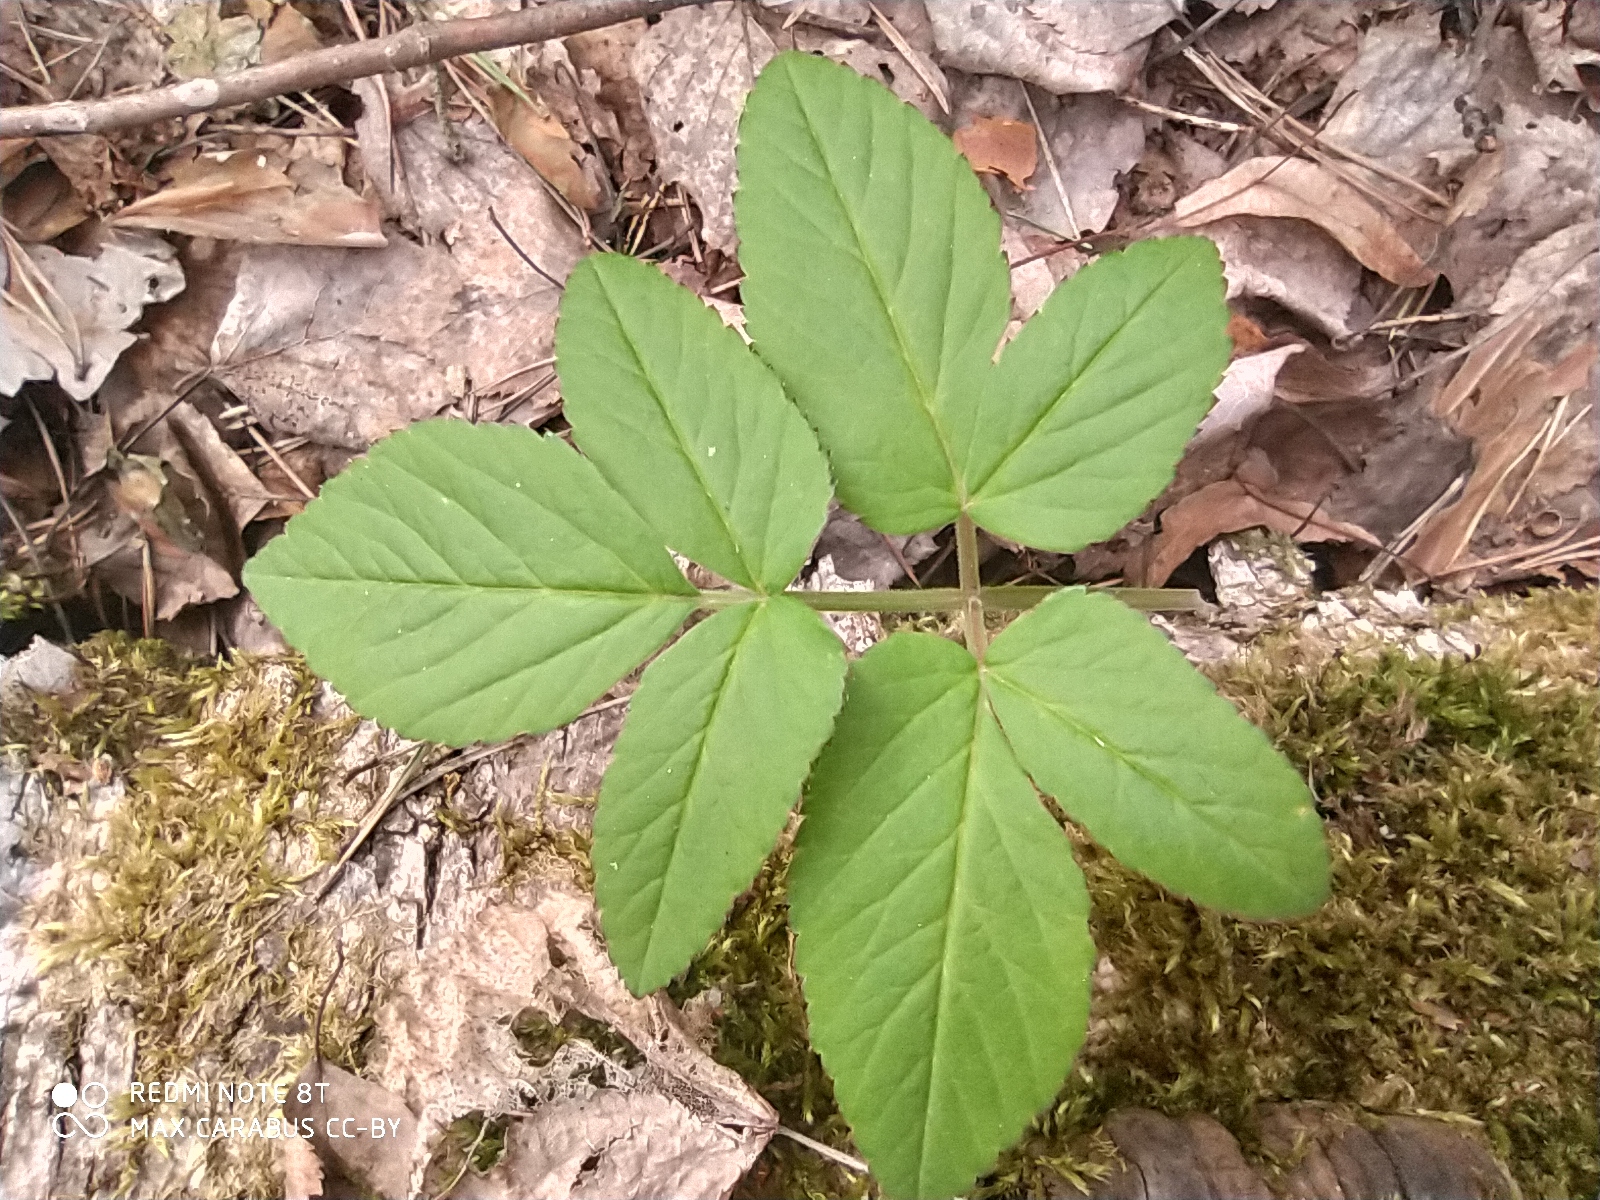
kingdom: Plantae
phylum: Tracheophyta
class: Magnoliopsida
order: Apiales
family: Apiaceae
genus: Aegopodium
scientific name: Aegopodium podagraria
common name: Ground-elder
